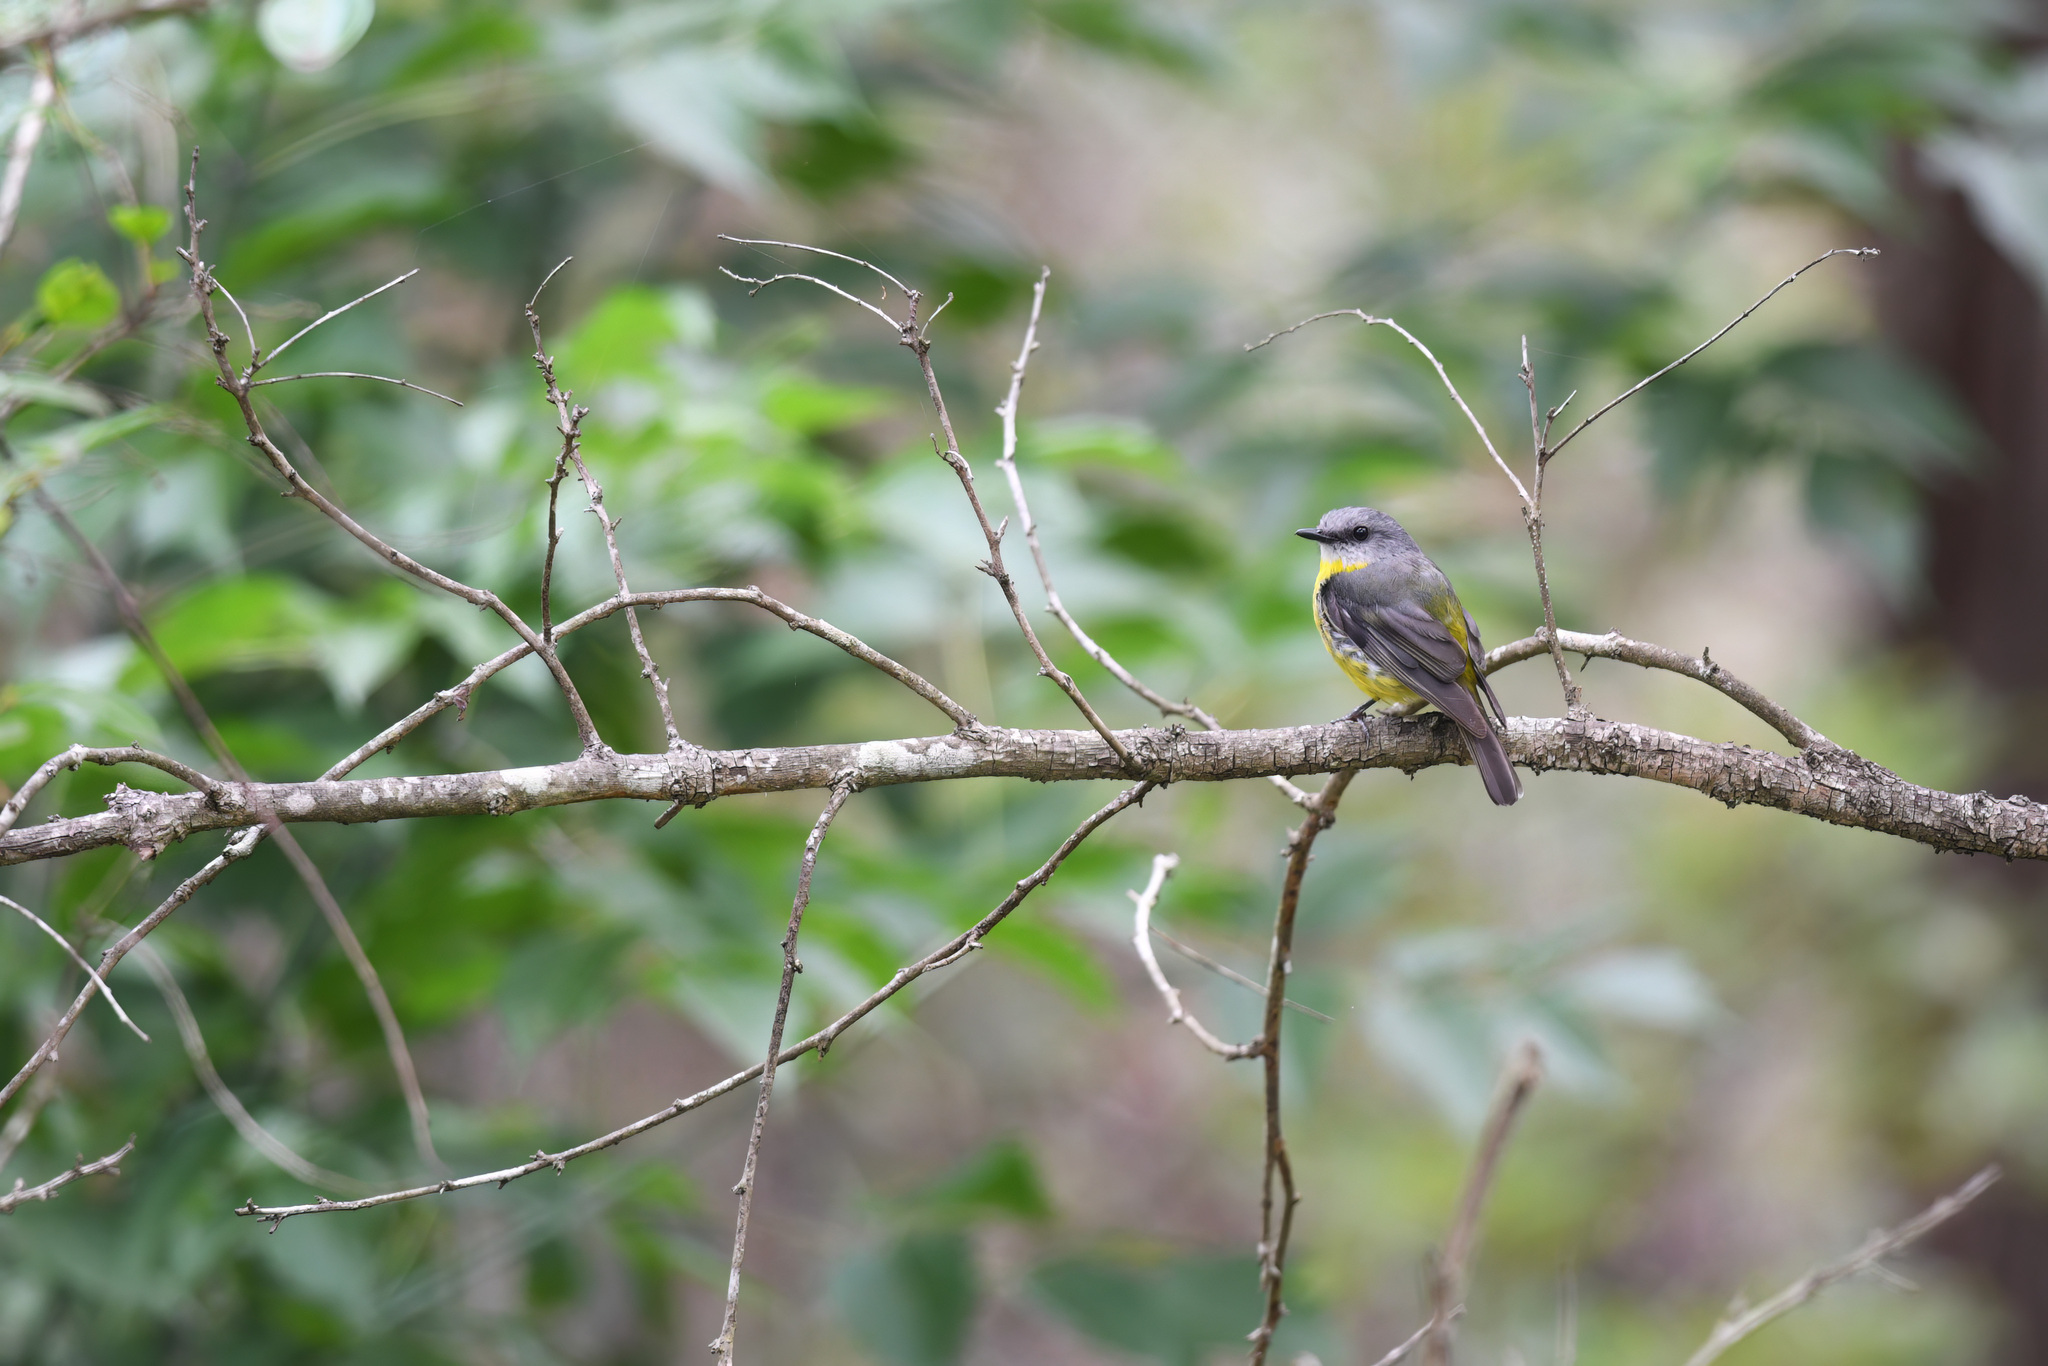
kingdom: Animalia
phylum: Chordata
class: Aves
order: Passeriformes
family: Petroicidae
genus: Eopsaltria
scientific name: Eopsaltria australis
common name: Eastern yellow robin
